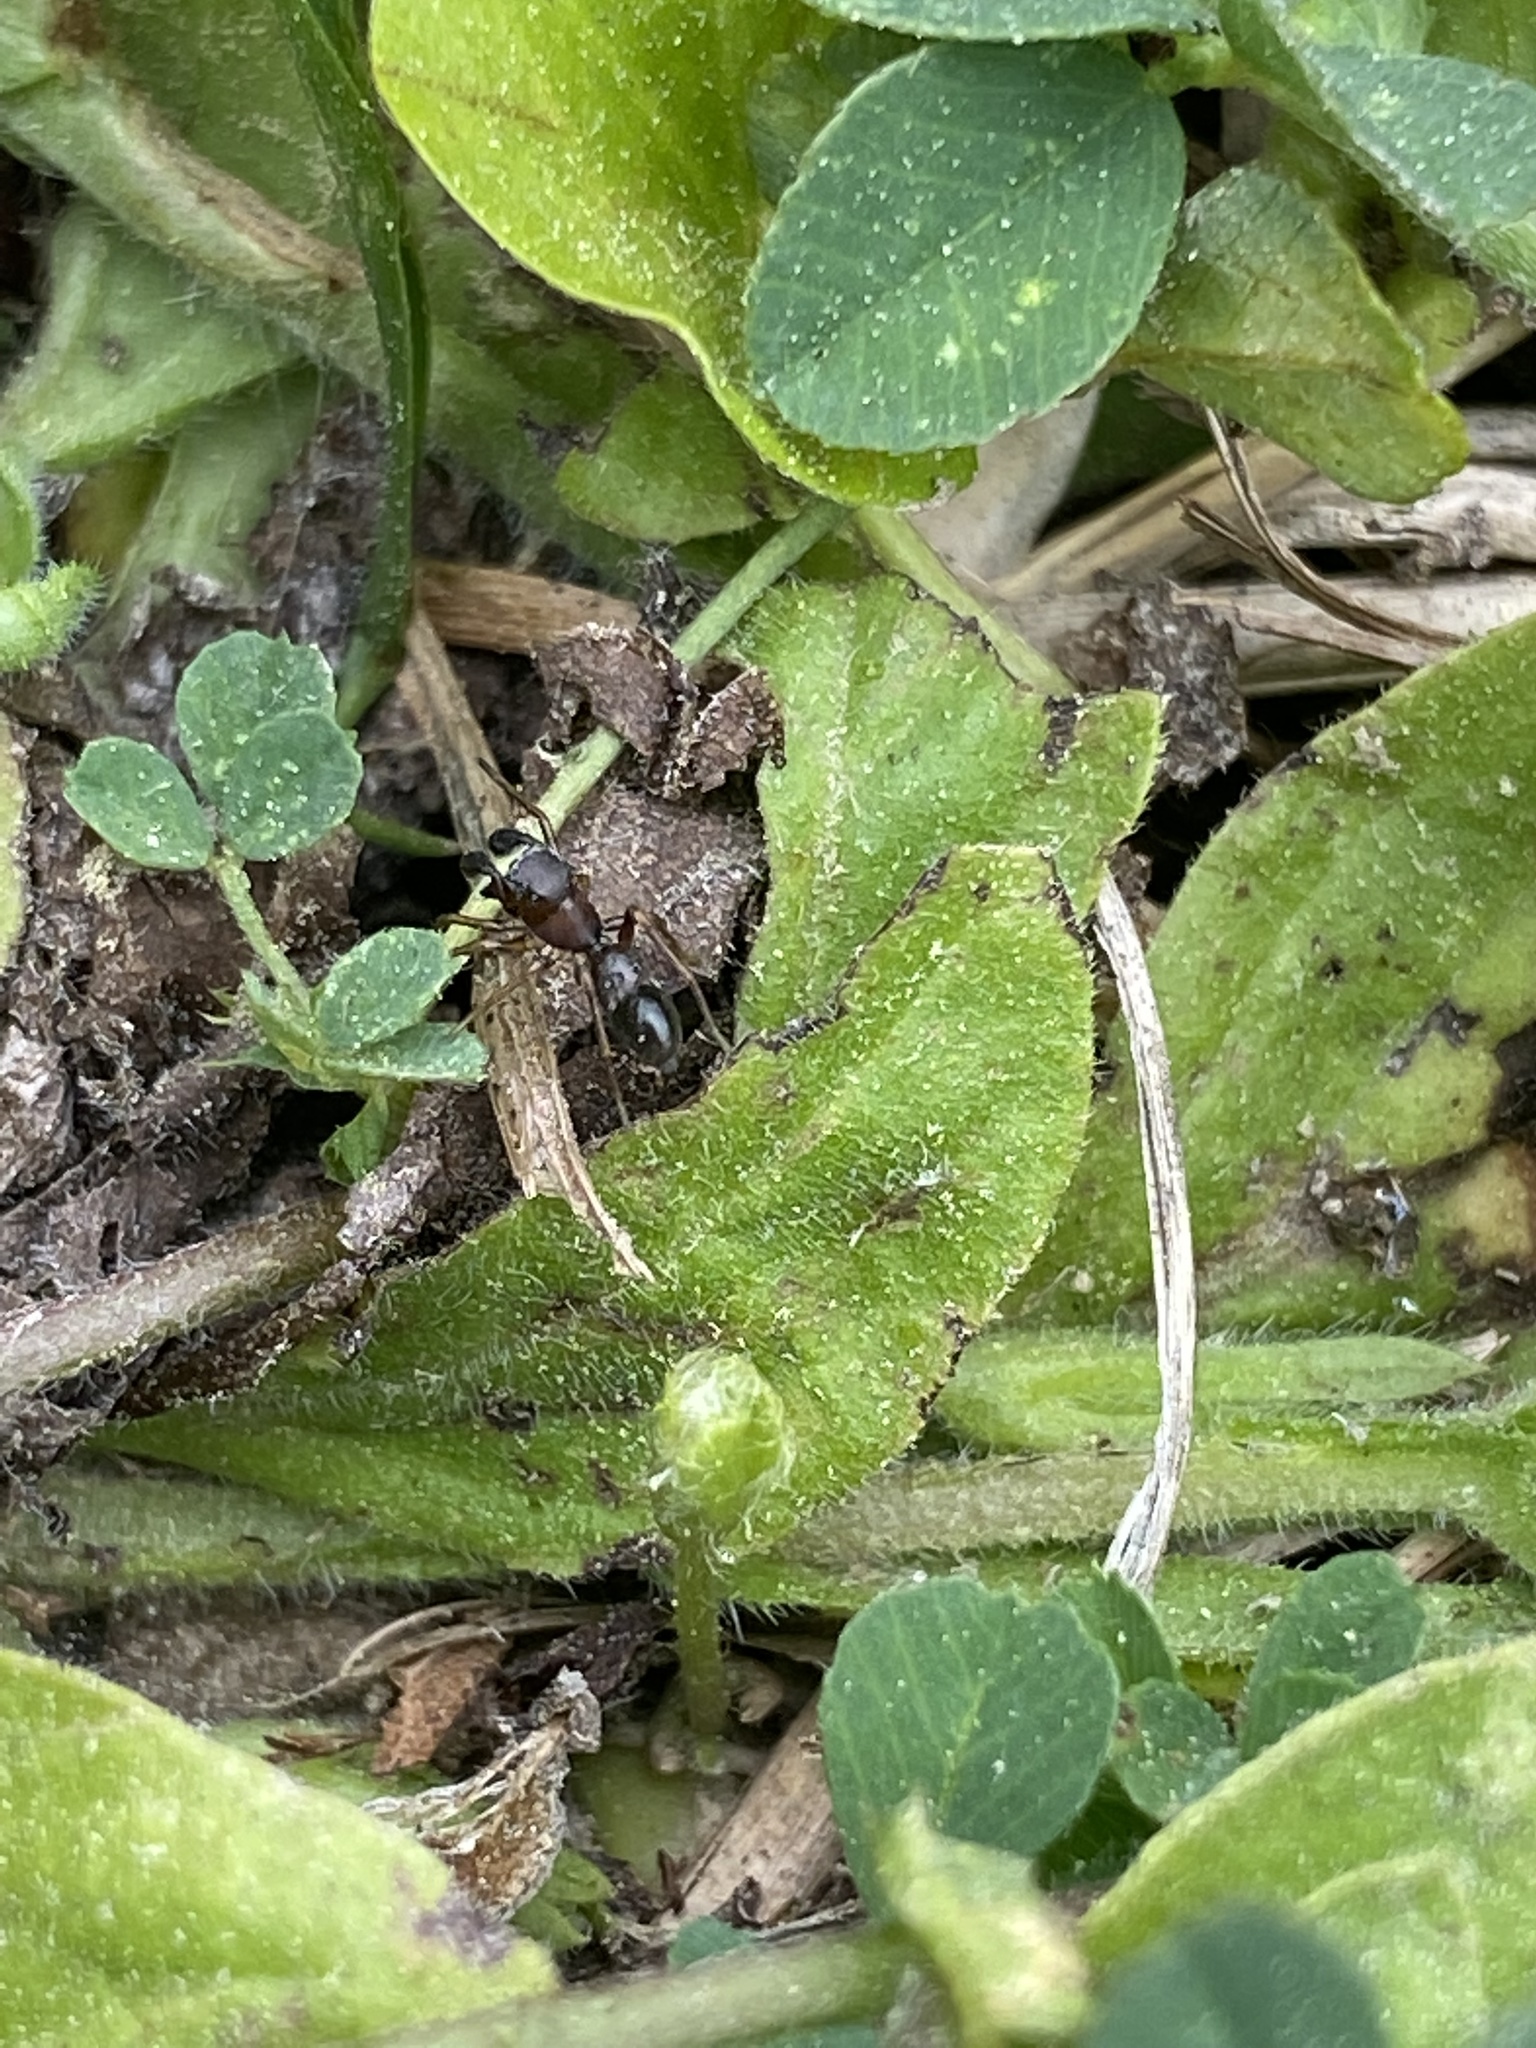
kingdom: Animalia
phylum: Arthropoda
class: Arachnida
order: Araneae
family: Salticidae
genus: Sarinda
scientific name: Sarinda hentzi
